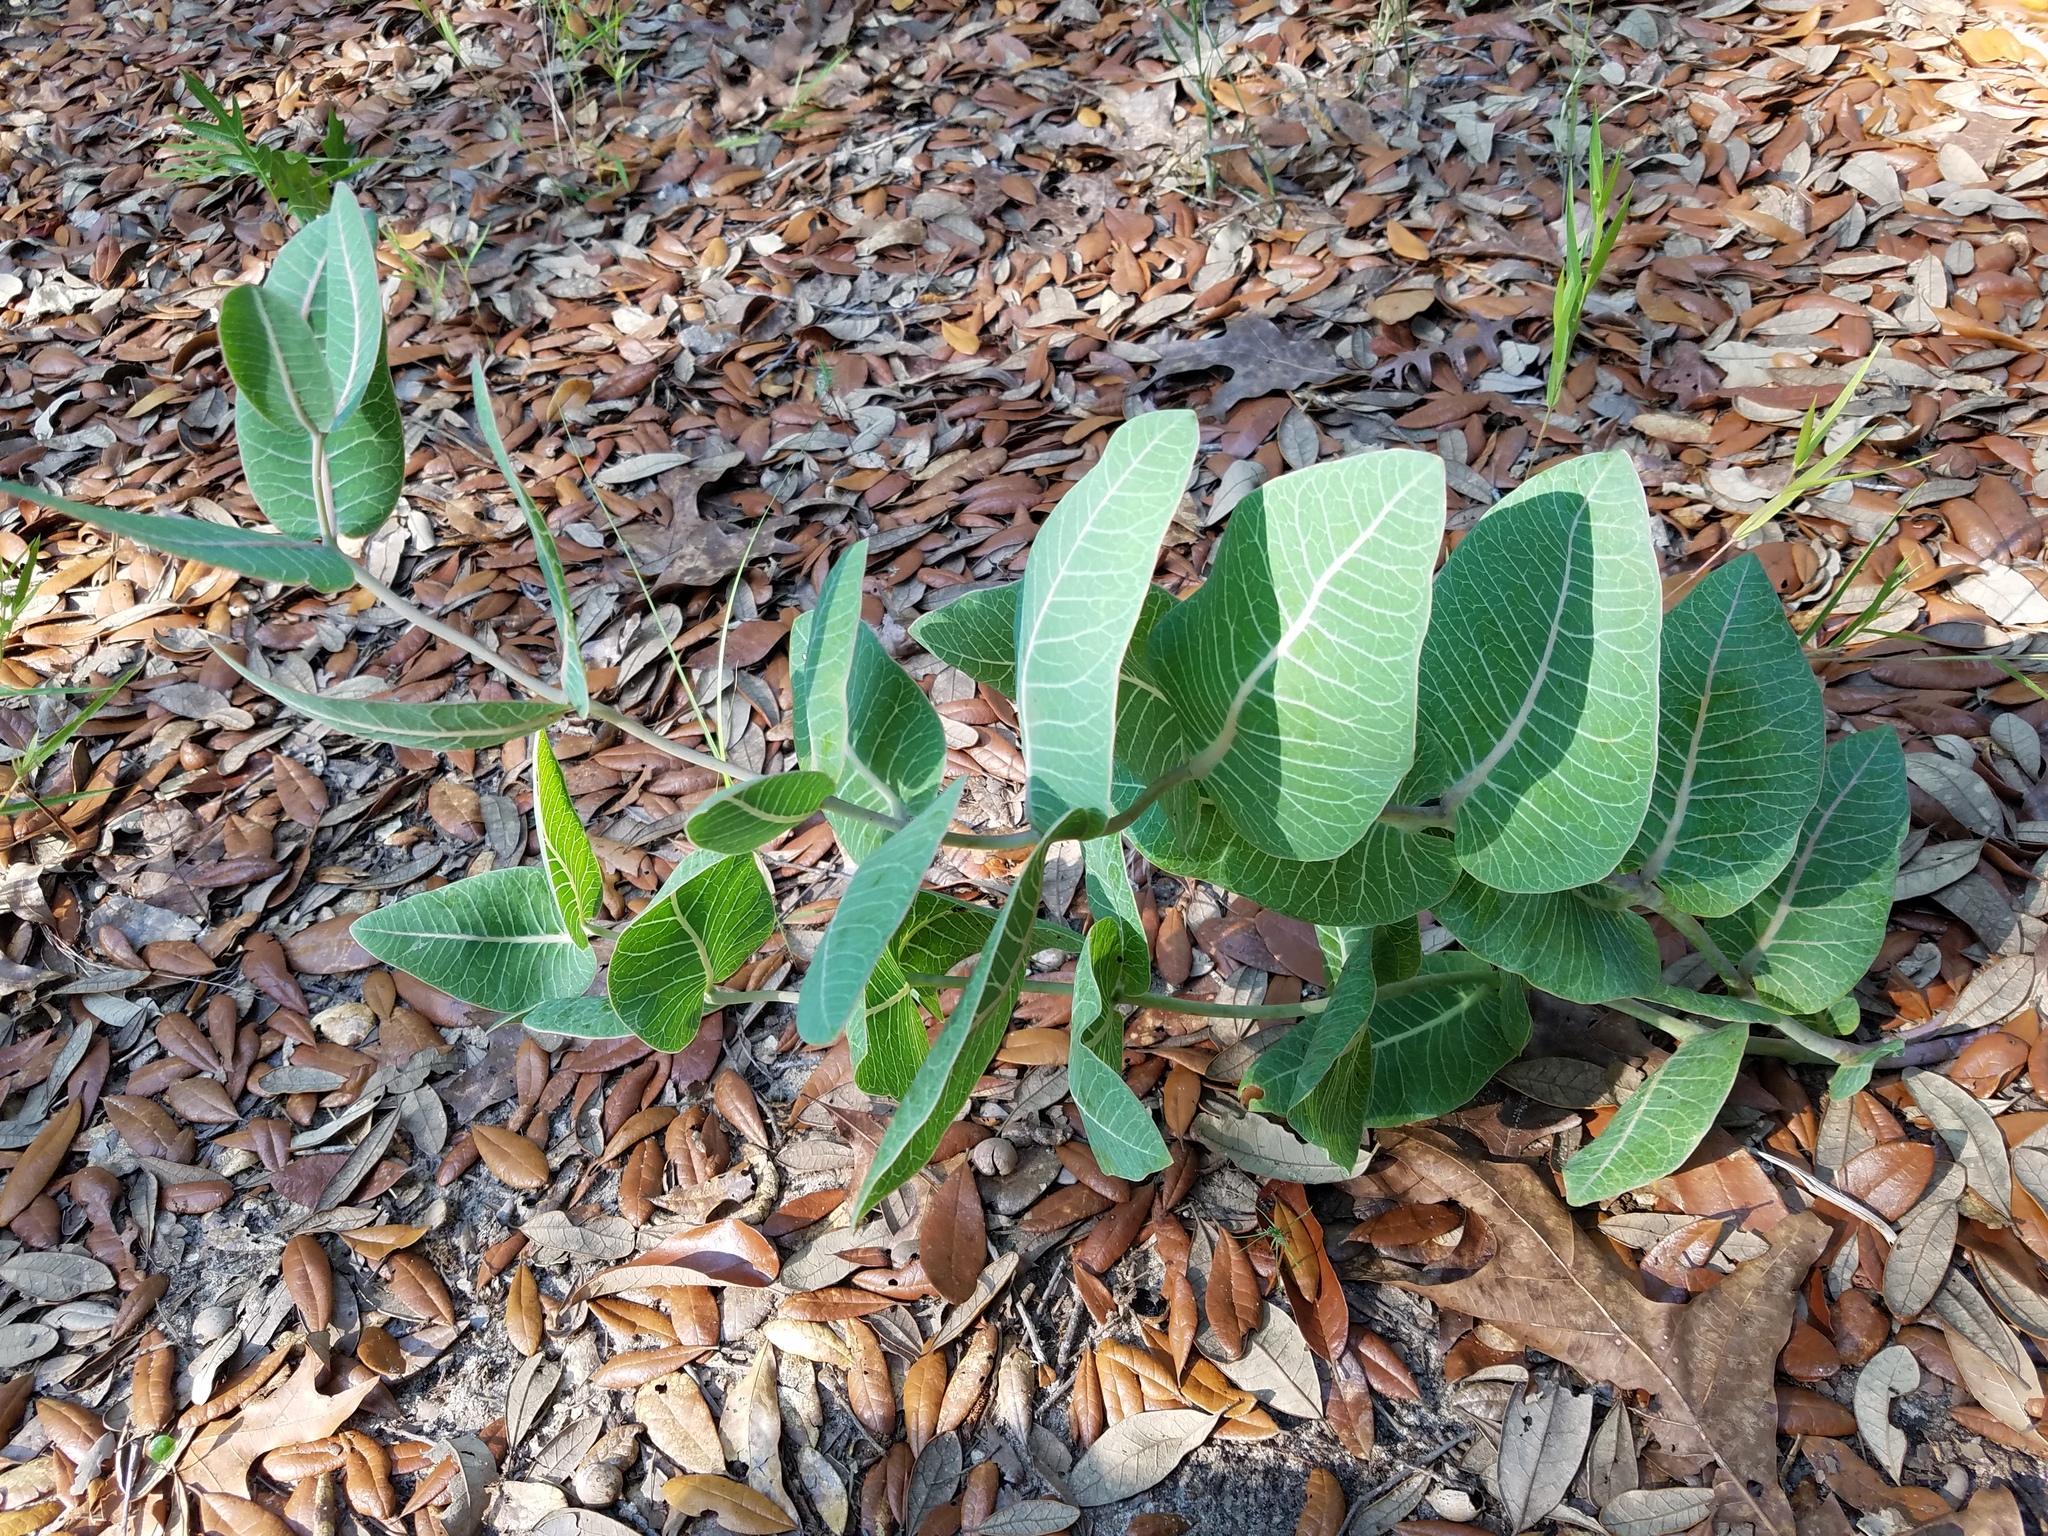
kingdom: Plantae
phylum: Tracheophyta
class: Magnoliopsida
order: Gentianales
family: Apocynaceae
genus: Asclepias
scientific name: Asclepias humistrata
